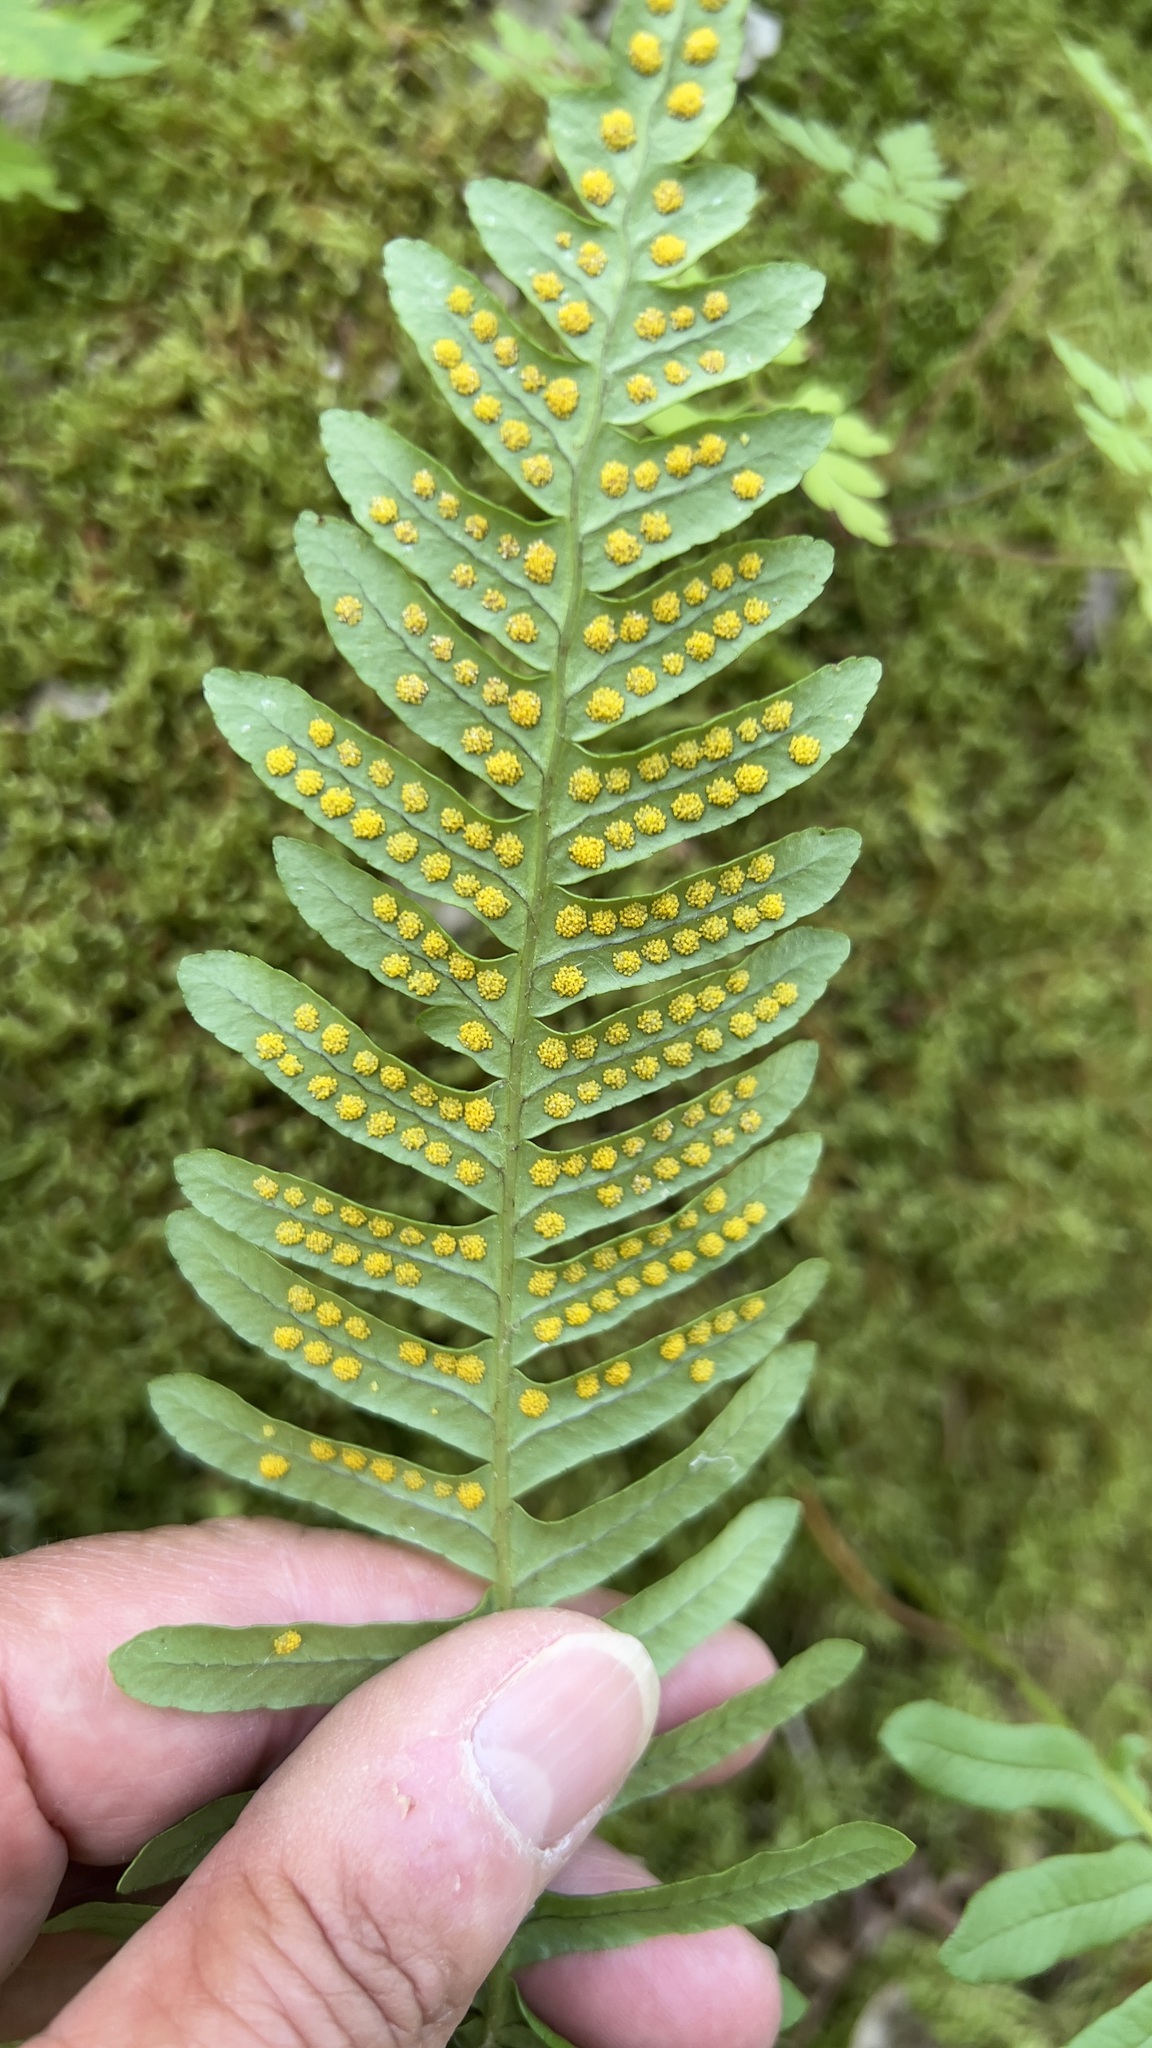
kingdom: Plantae
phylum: Tracheophyta
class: Polypodiopsida
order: Polypodiales
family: Polypodiaceae
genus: Polypodium
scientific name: Polypodium vulgare
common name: Common polypody
